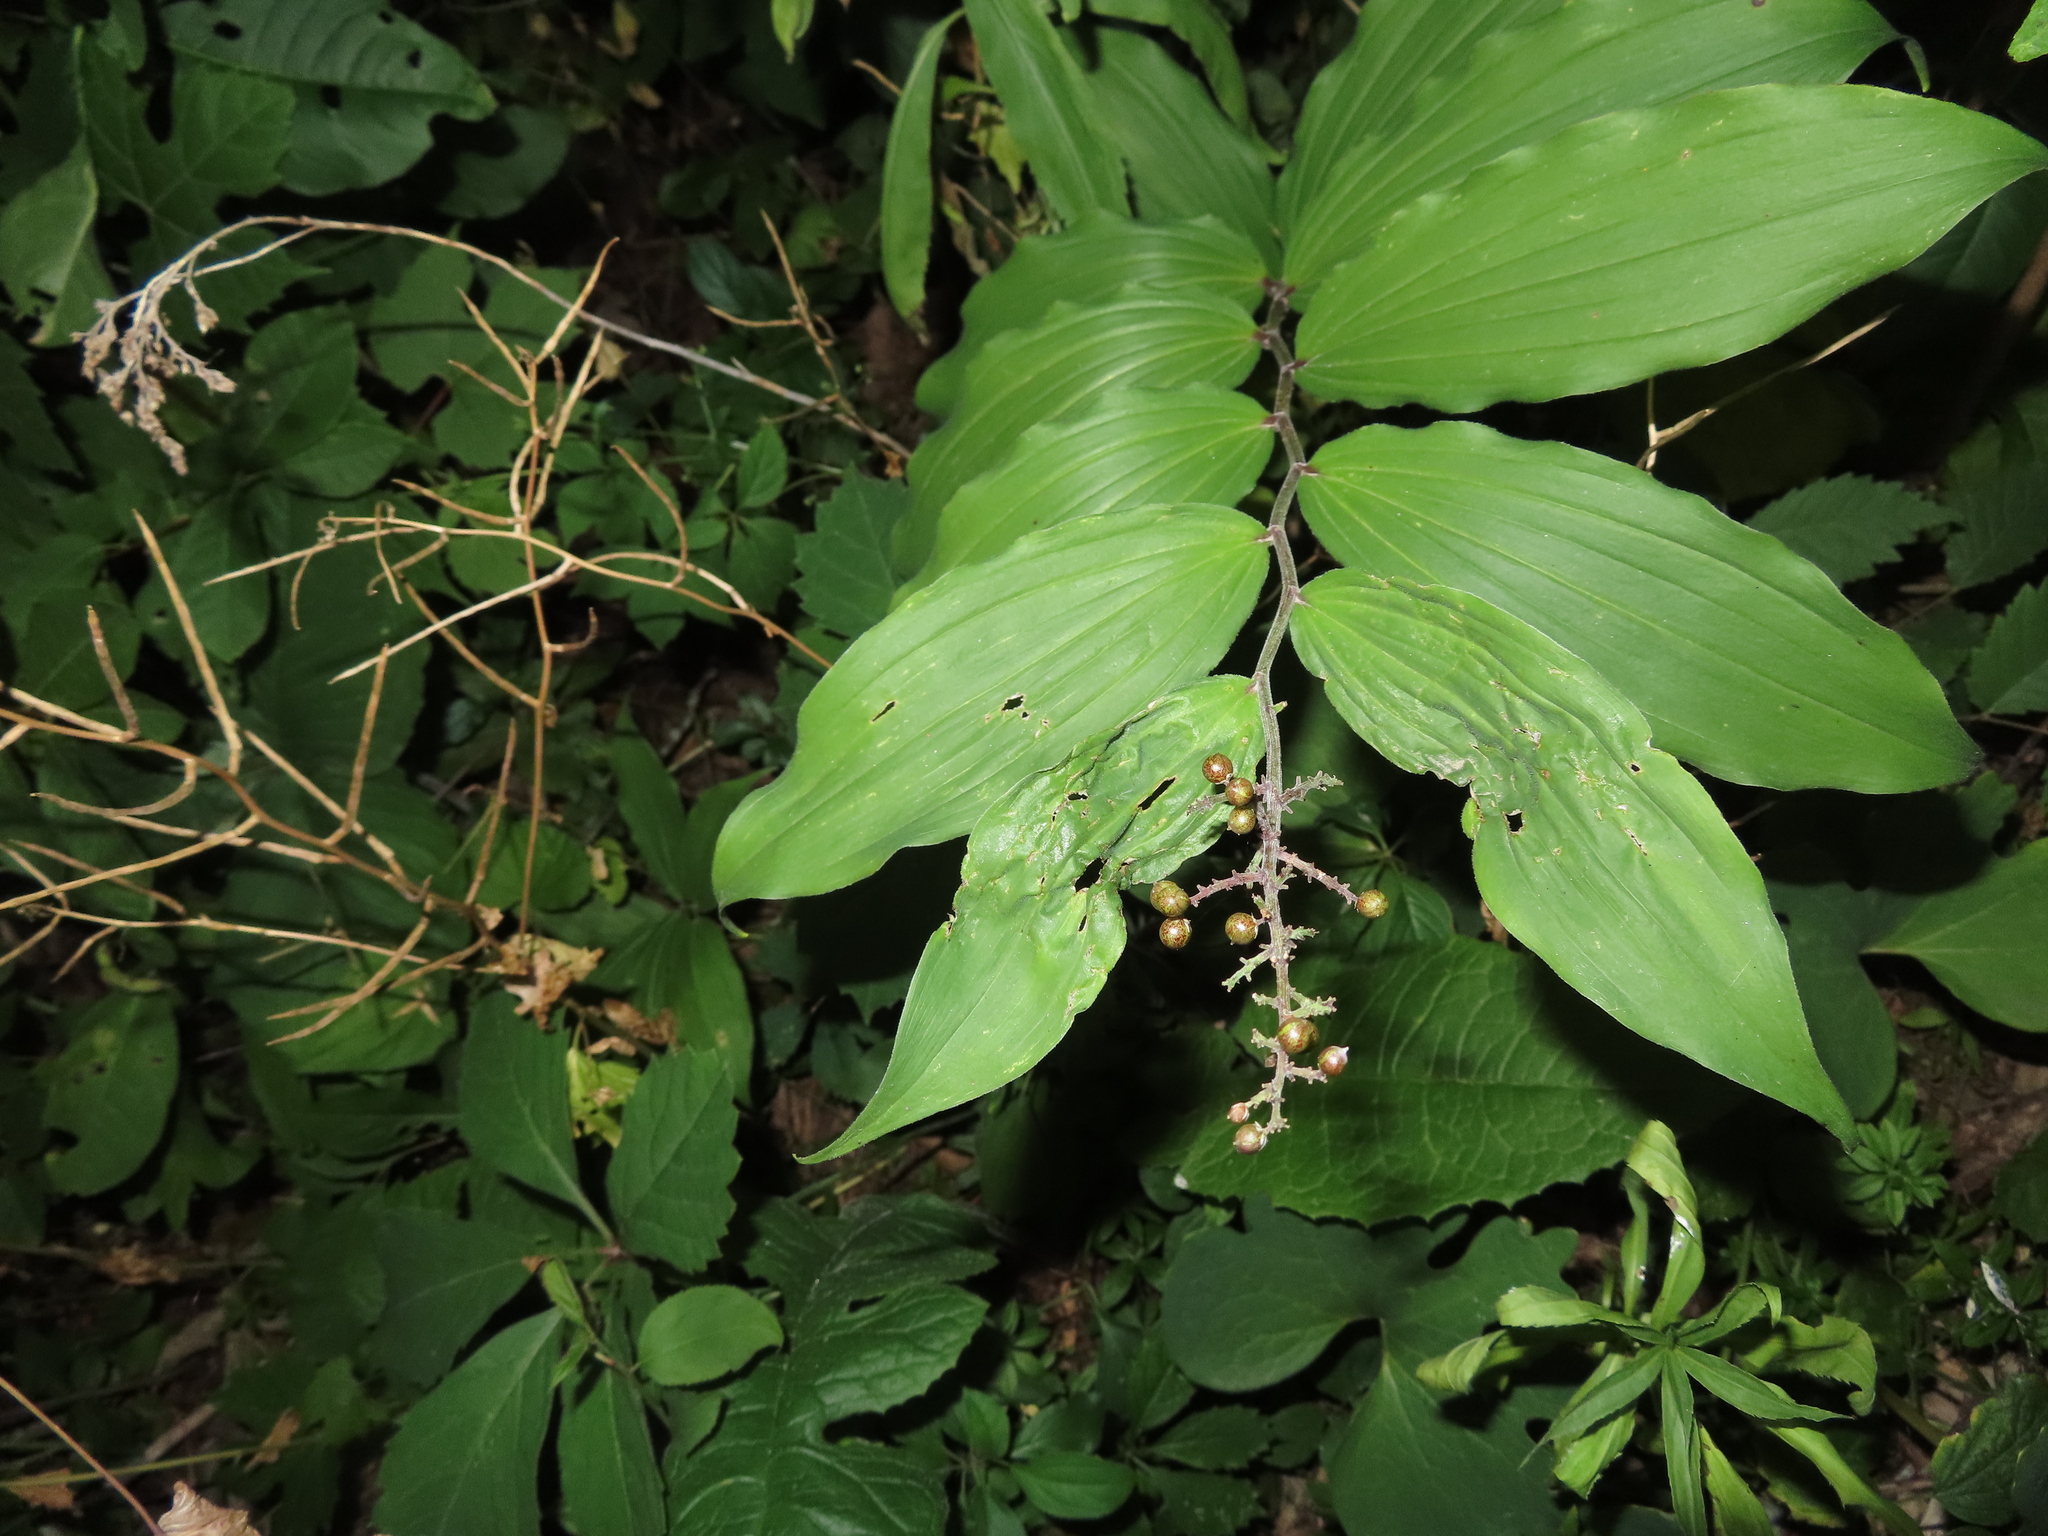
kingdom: Plantae
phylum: Tracheophyta
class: Liliopsida
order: Asparagales
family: Asparagaceae
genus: Maianthemum
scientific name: Maianthemum racemosum
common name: False spikenard
